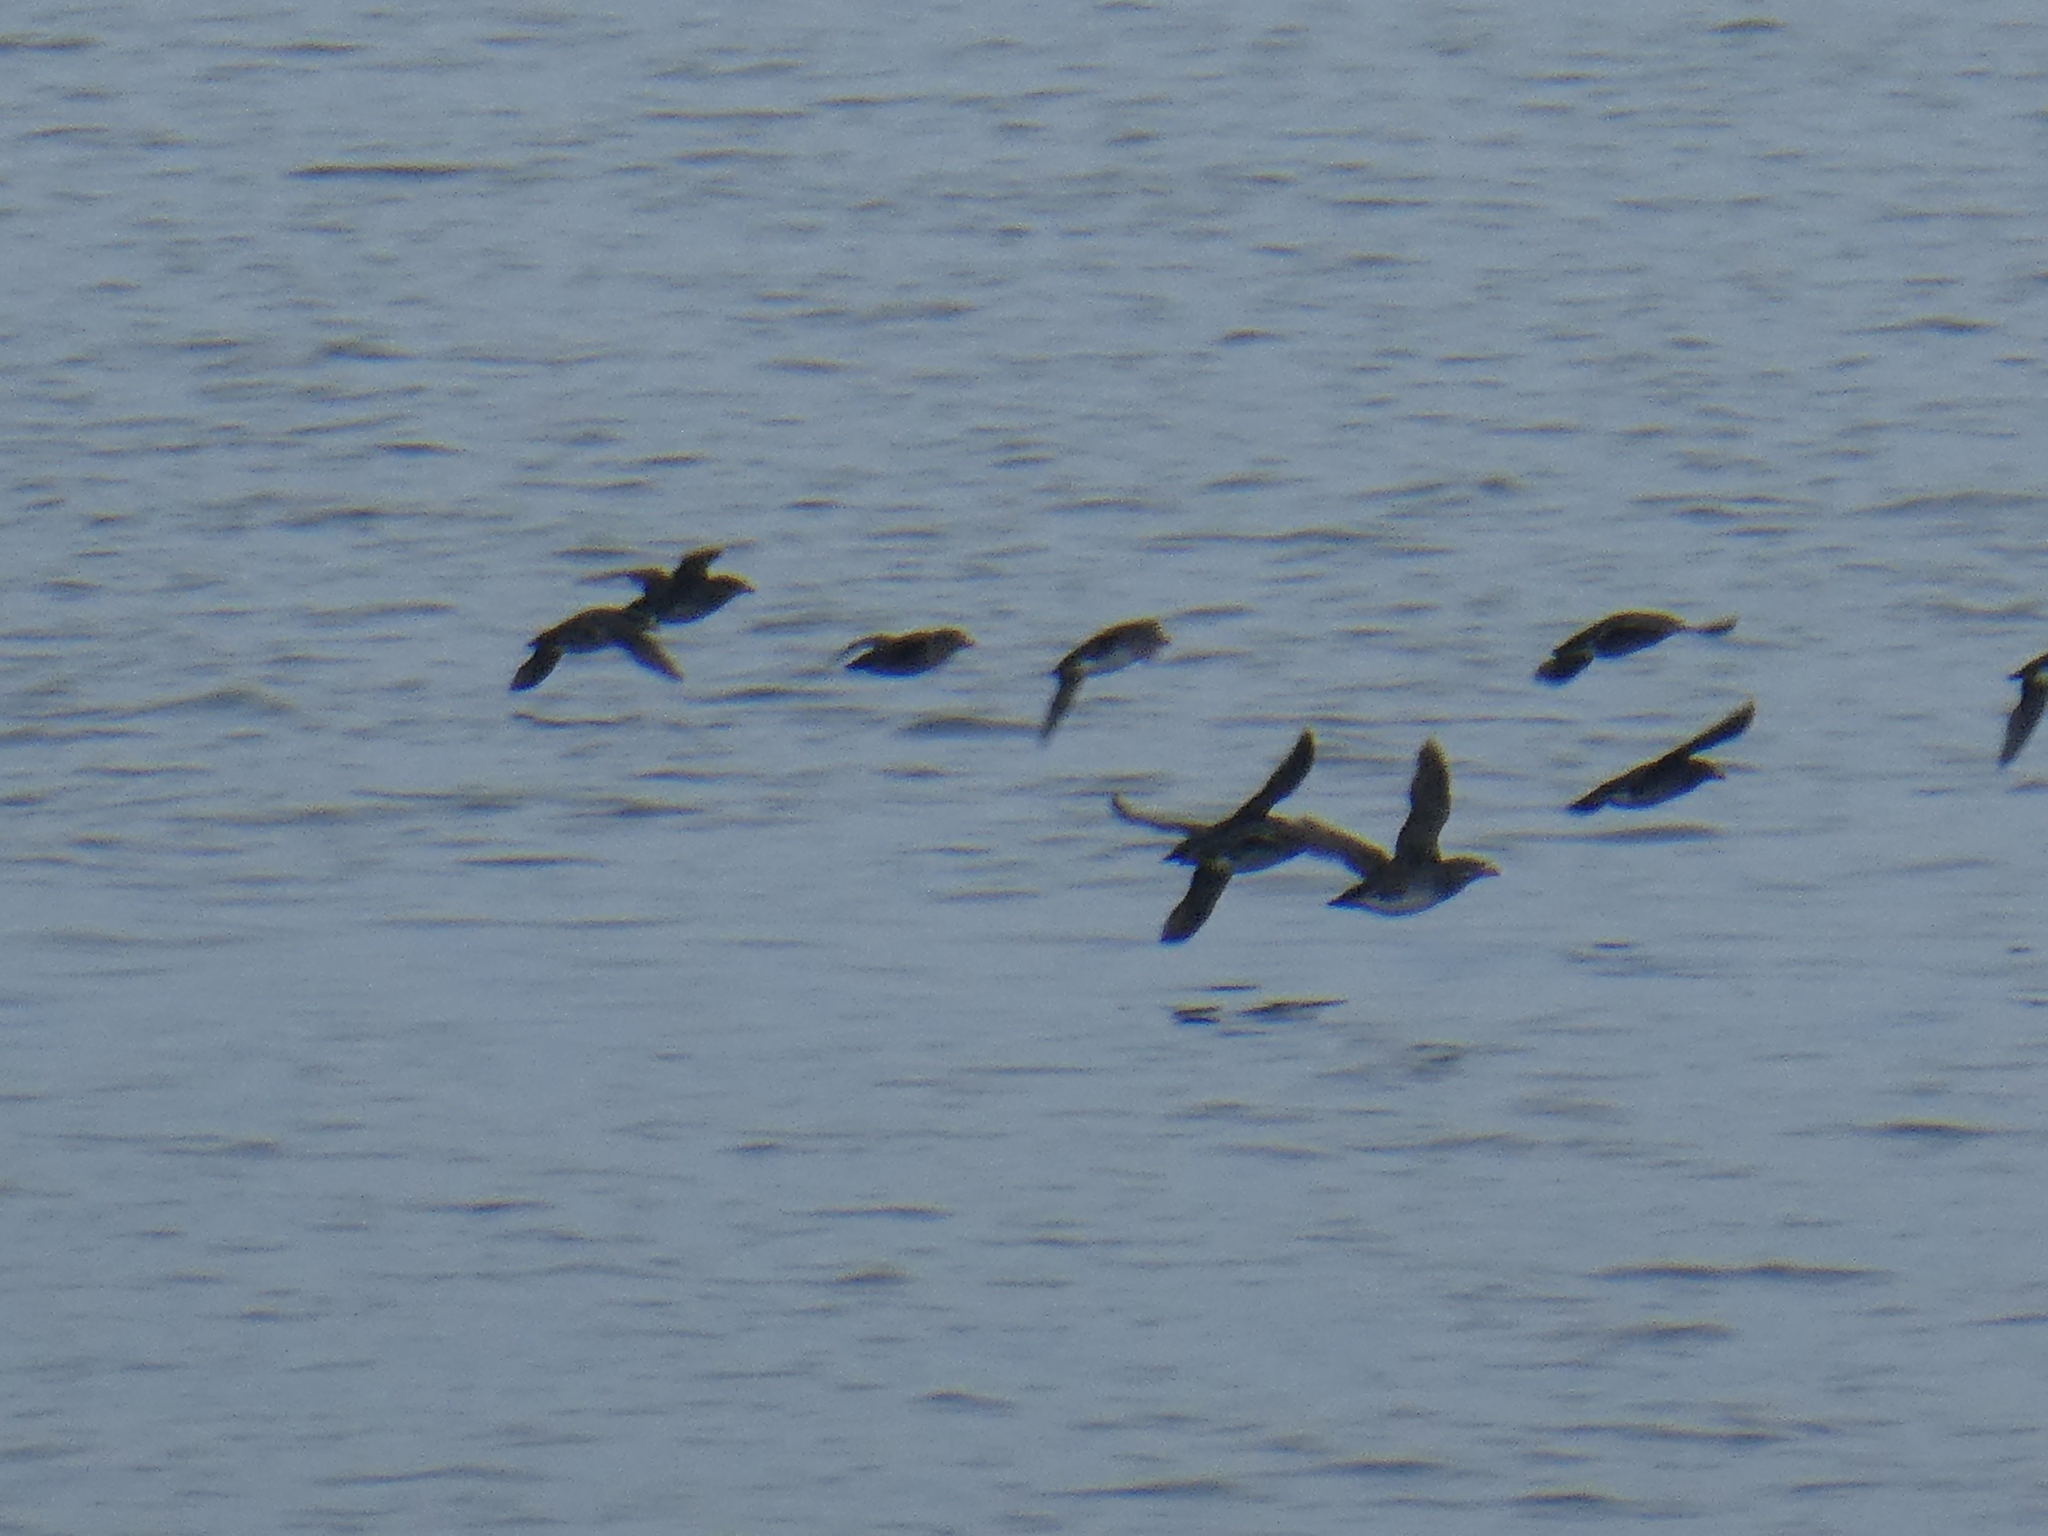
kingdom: Animalia
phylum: Chordata
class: Aves
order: Charadriiformes
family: Alcidae
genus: Cerorhinca
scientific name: Cerorhinca monocerata
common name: Rhinoceros auklet
